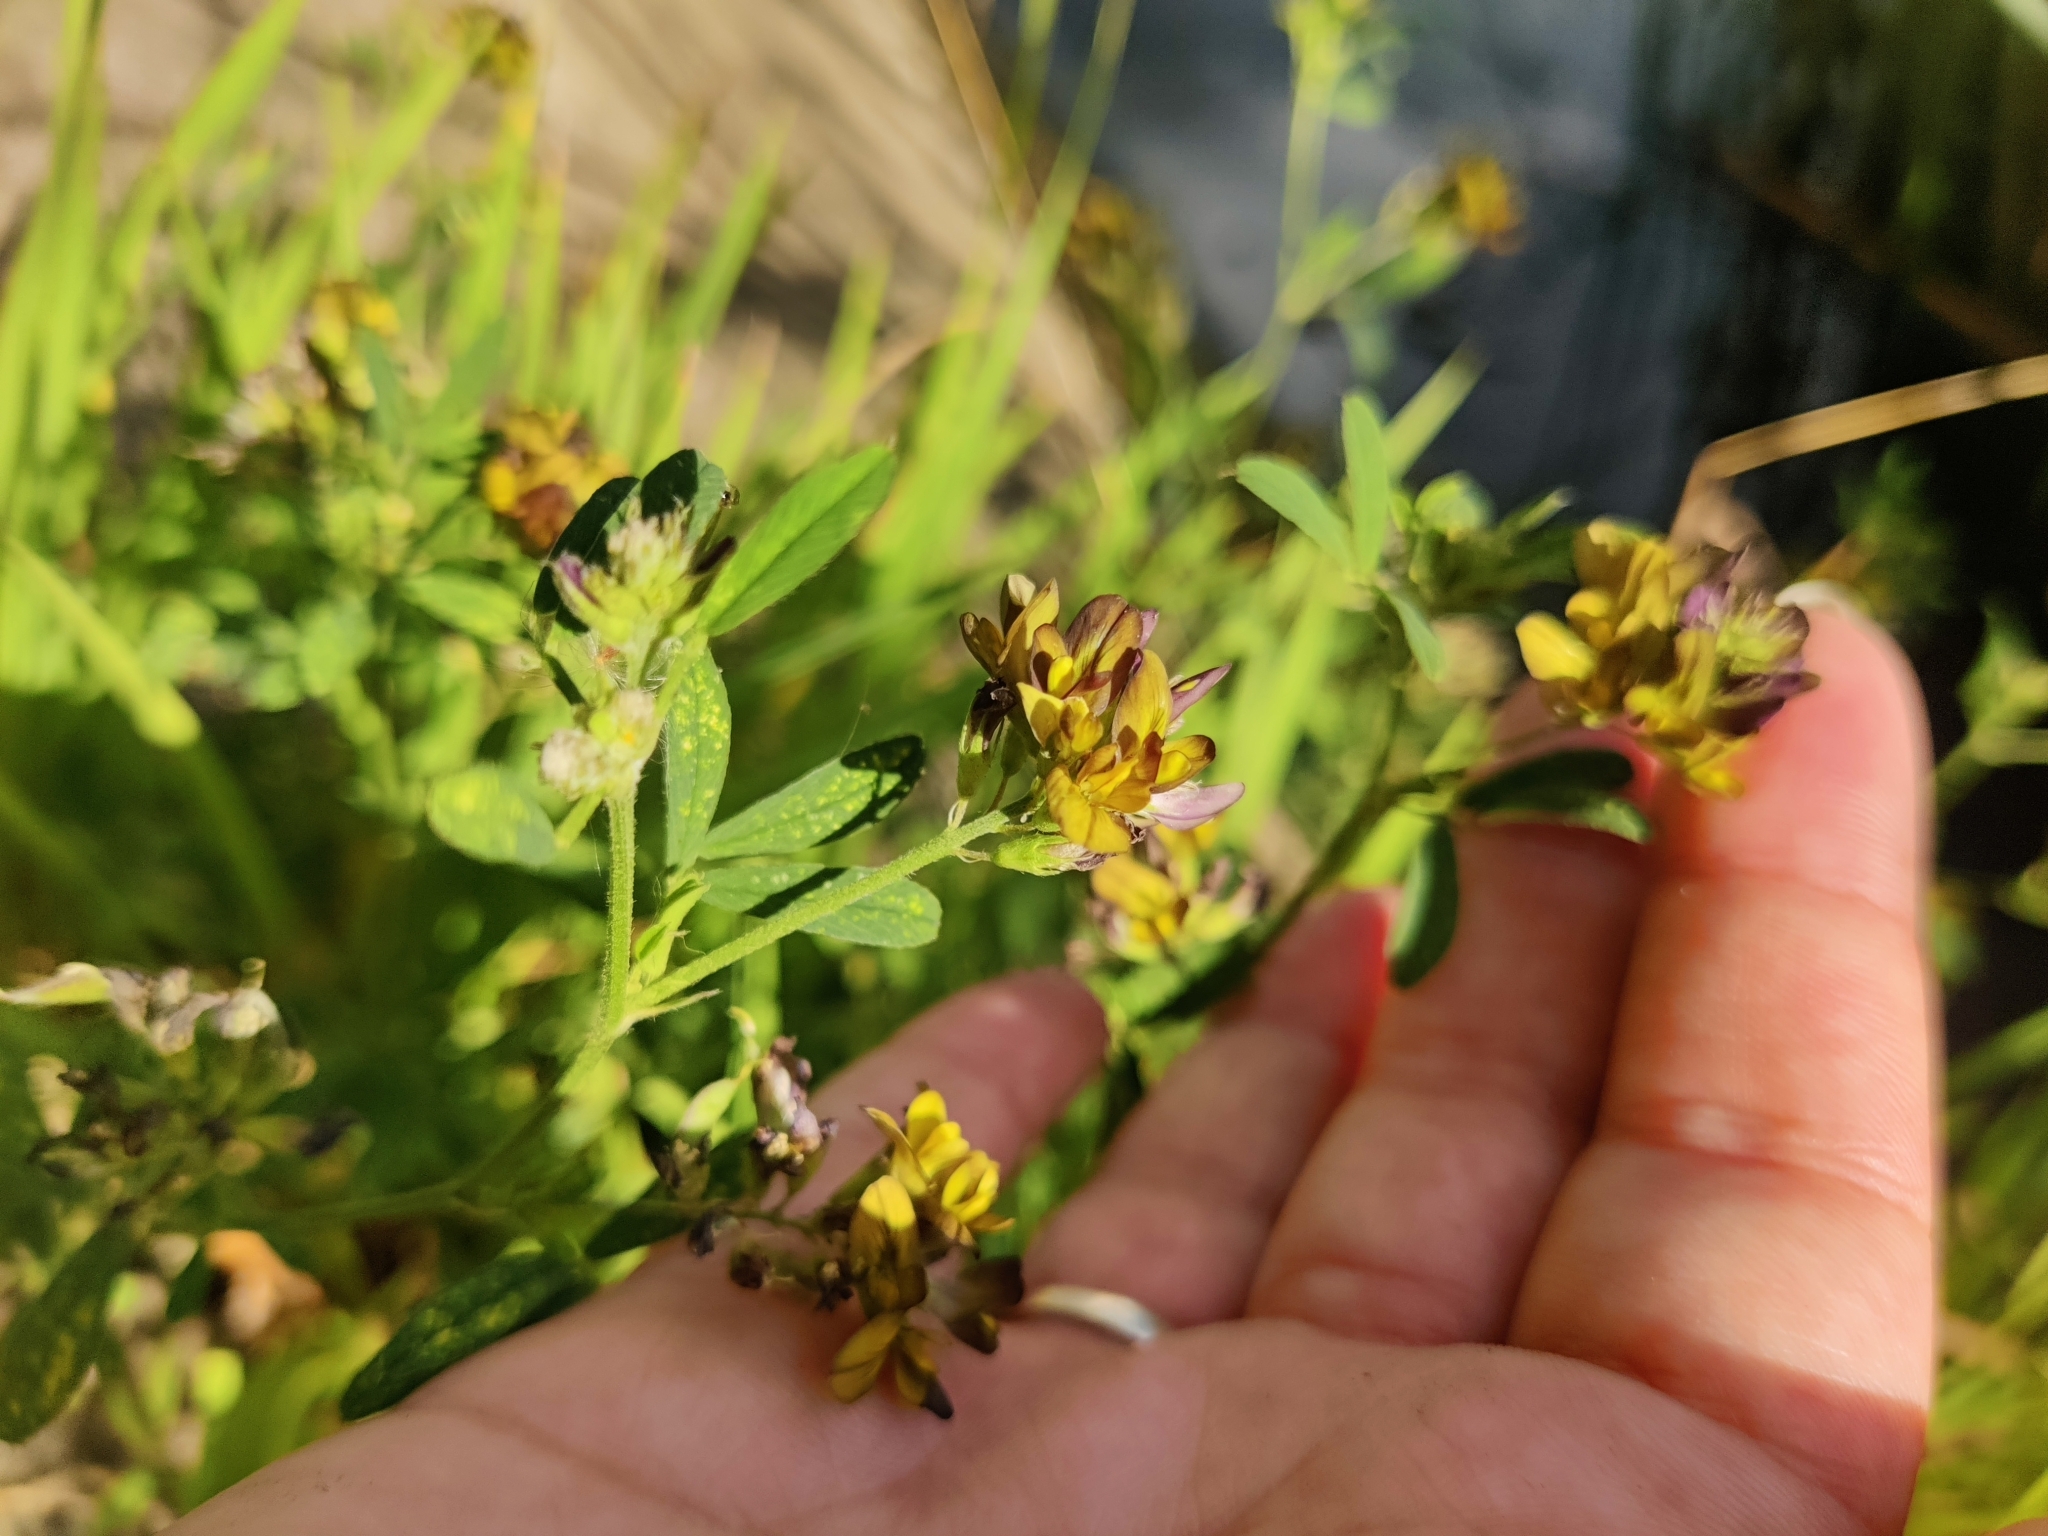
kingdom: Plantae
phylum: Tracheophyta
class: Magnoliopsida
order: Fabales
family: Fabaceae
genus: Medicago
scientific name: Medicago varia
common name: Sand lucerne
